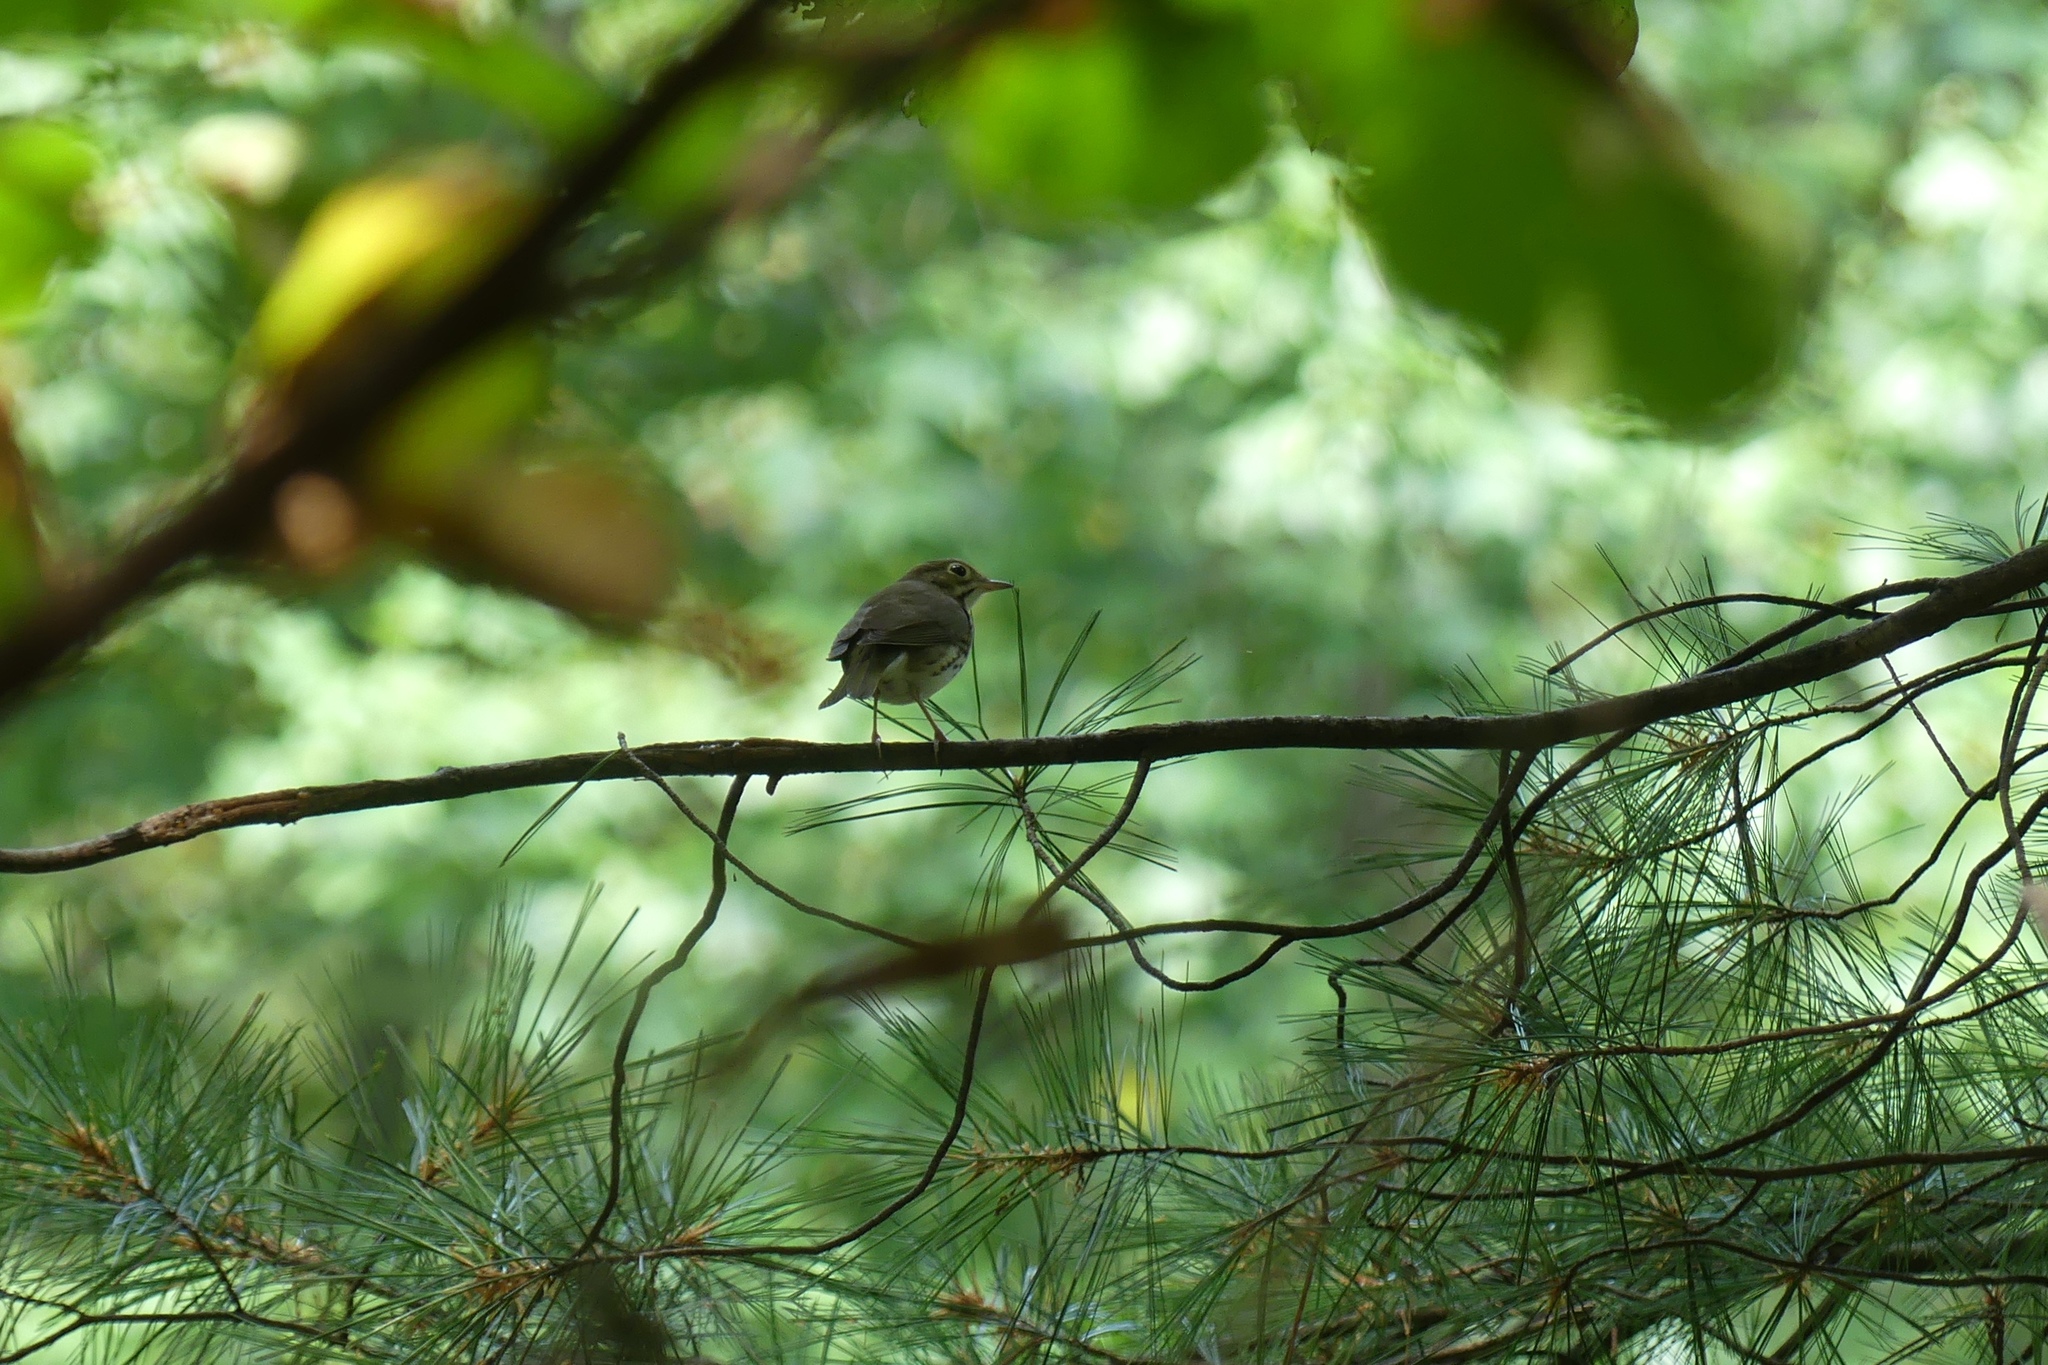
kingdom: Animalia
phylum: Chordata
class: Aves
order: Passeriformes
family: Parulidae
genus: Seiurus
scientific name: Seiurus aurocapilla
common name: Ovenbird
